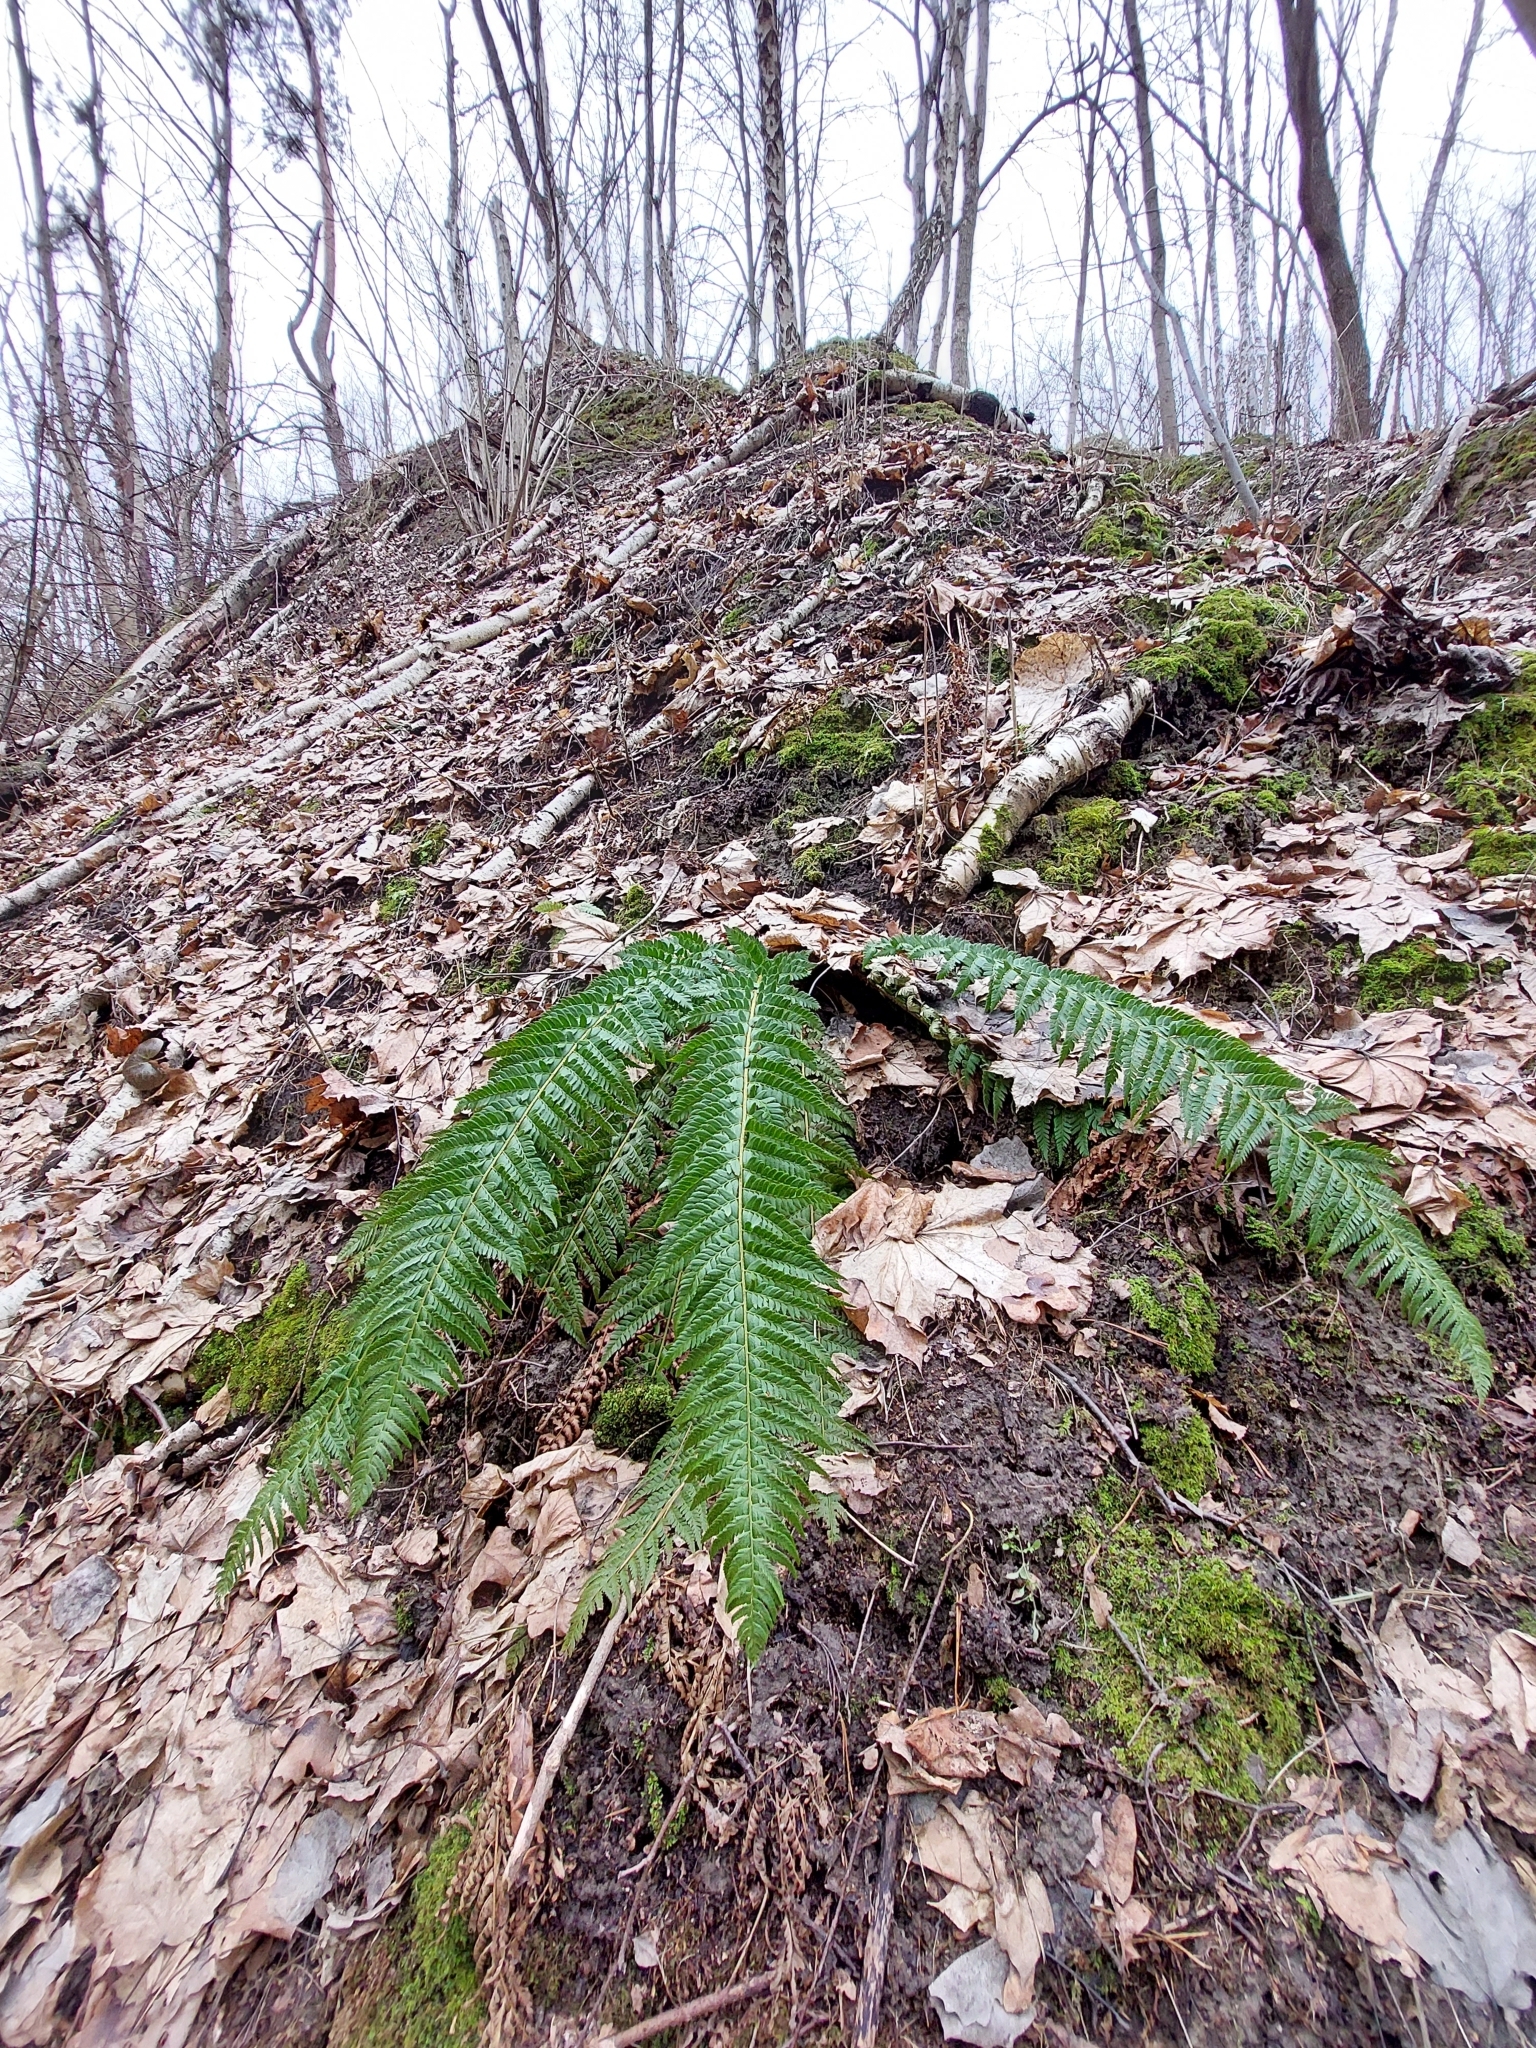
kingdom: Plantae
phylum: Tracheophyta
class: Polypodiopsida
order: Polypodiales
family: Dryopteridaceae
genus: Polystichum
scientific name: Polystichum aculeatum
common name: Hard shield-fern
